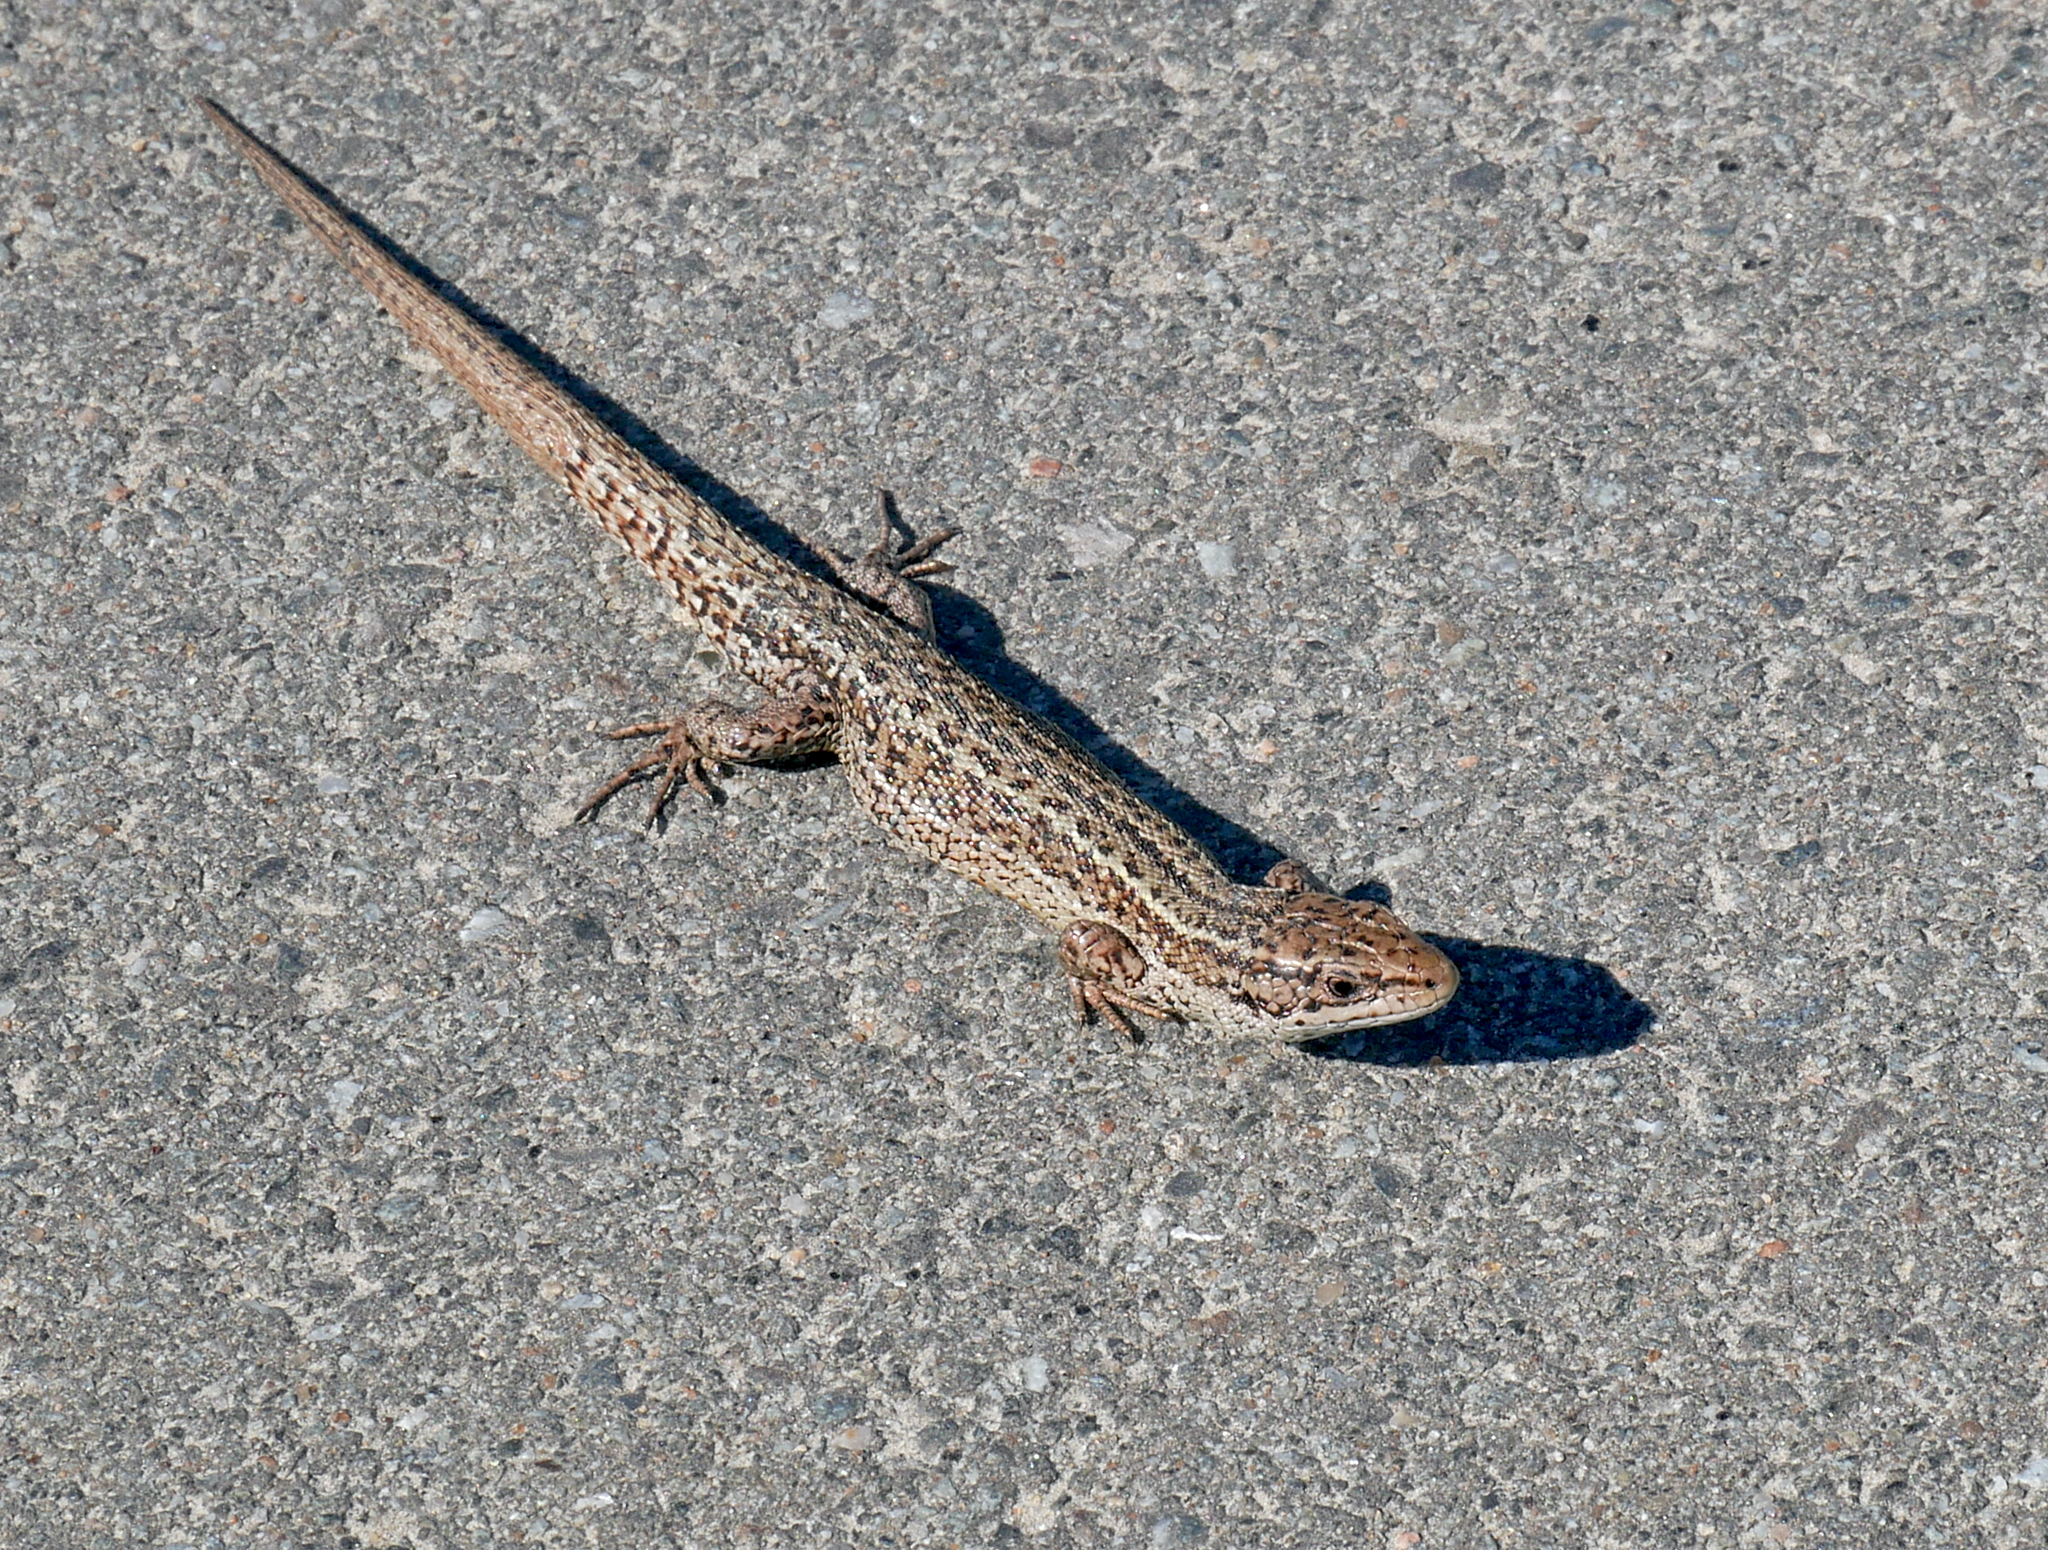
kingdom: Animalia
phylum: Chordata
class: Squamata
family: Lacertidae
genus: Zootoca
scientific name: Zootoca vivipara
